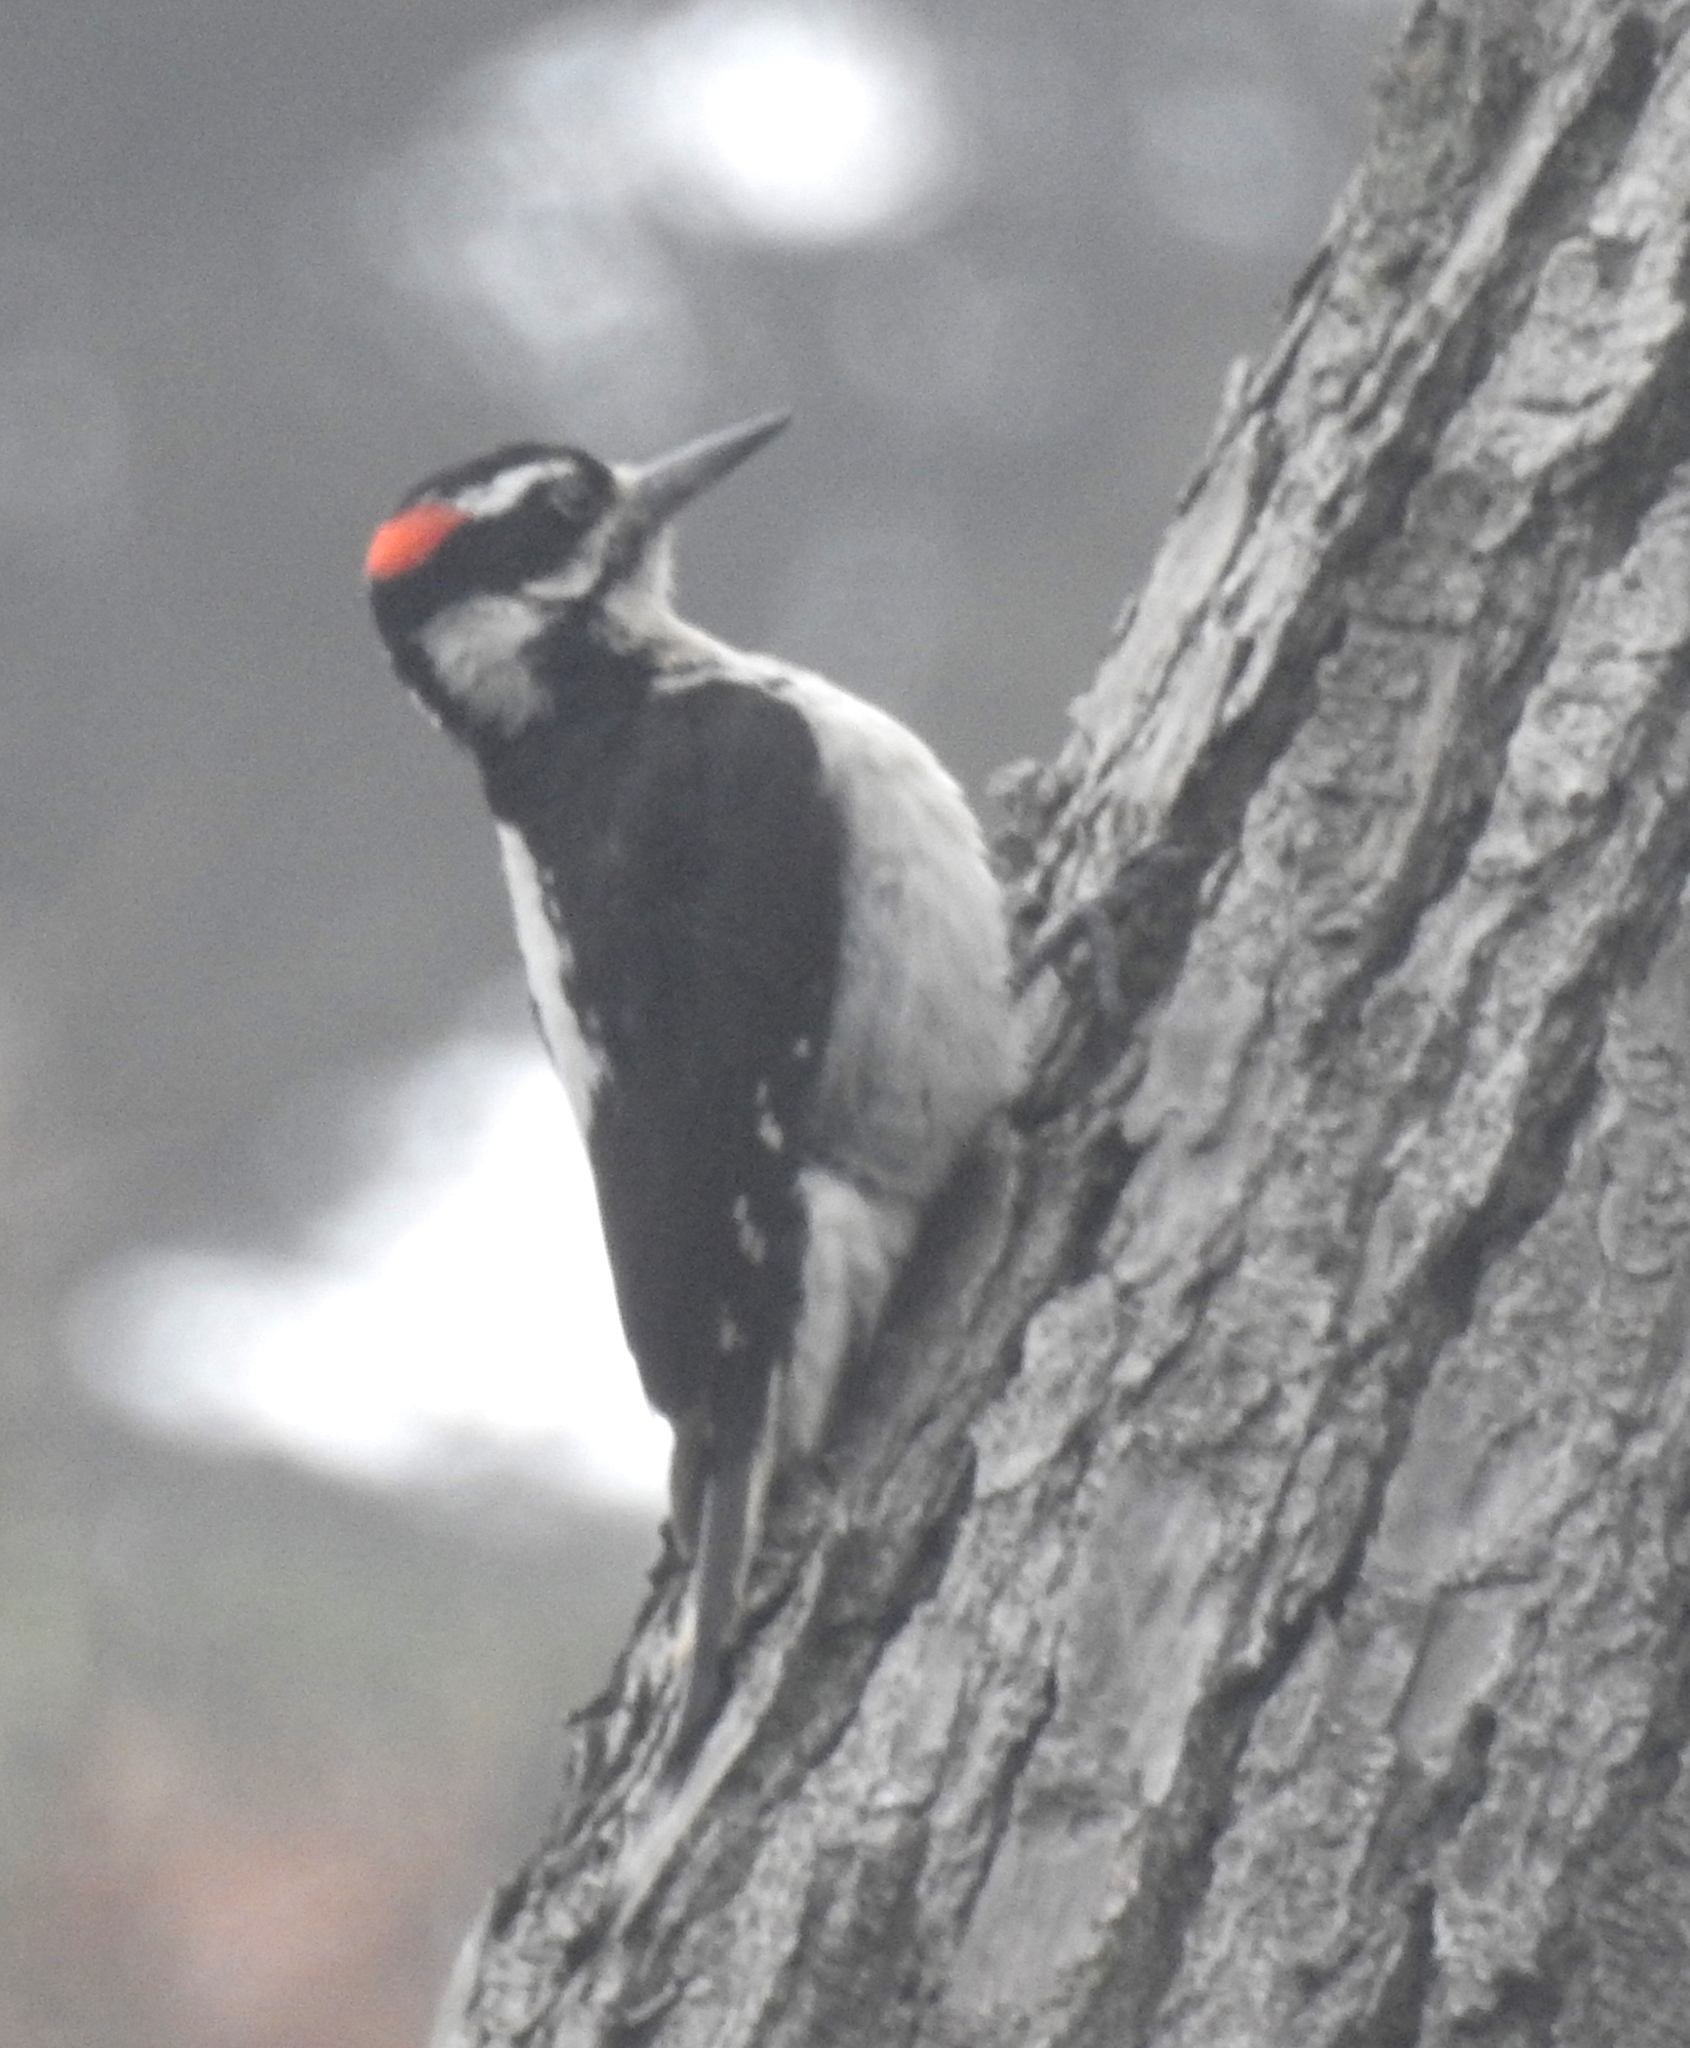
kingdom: Animalia
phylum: Chordata
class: Aves
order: Piciformes
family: Picidae
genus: Leuconotopicus
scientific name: Leuconotopicus villosus
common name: Hairy woodpecker
